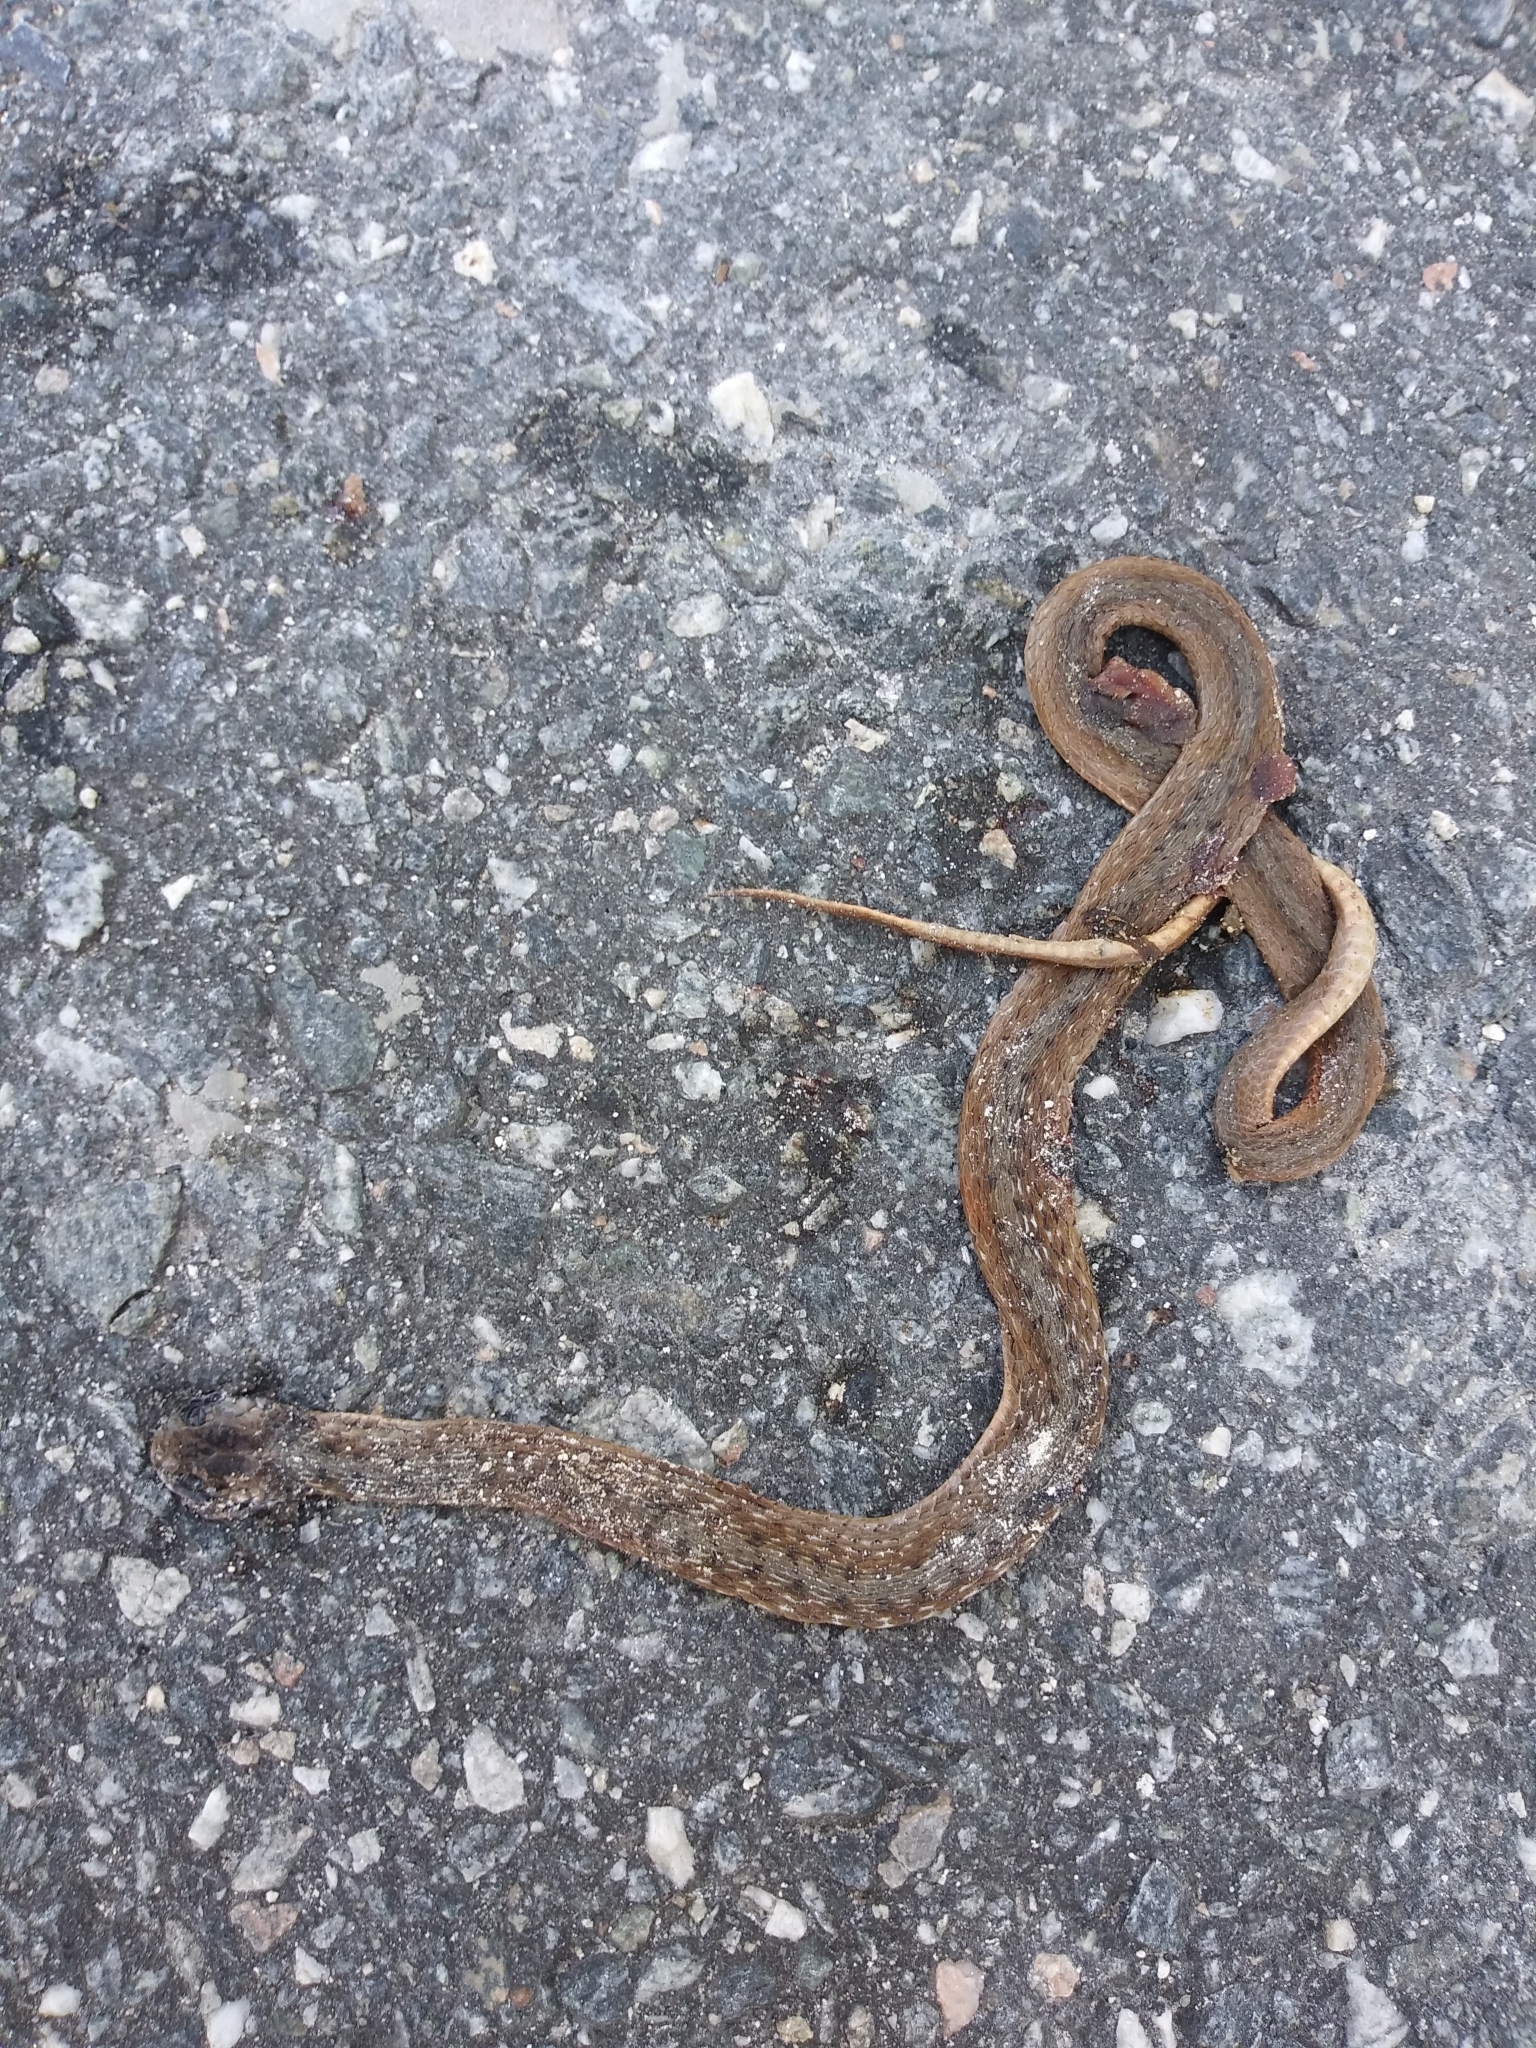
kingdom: Animalia
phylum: Chordata
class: Squamata
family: Colubridae
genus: Storeria
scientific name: Storeria victa
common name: Florida brown snake
